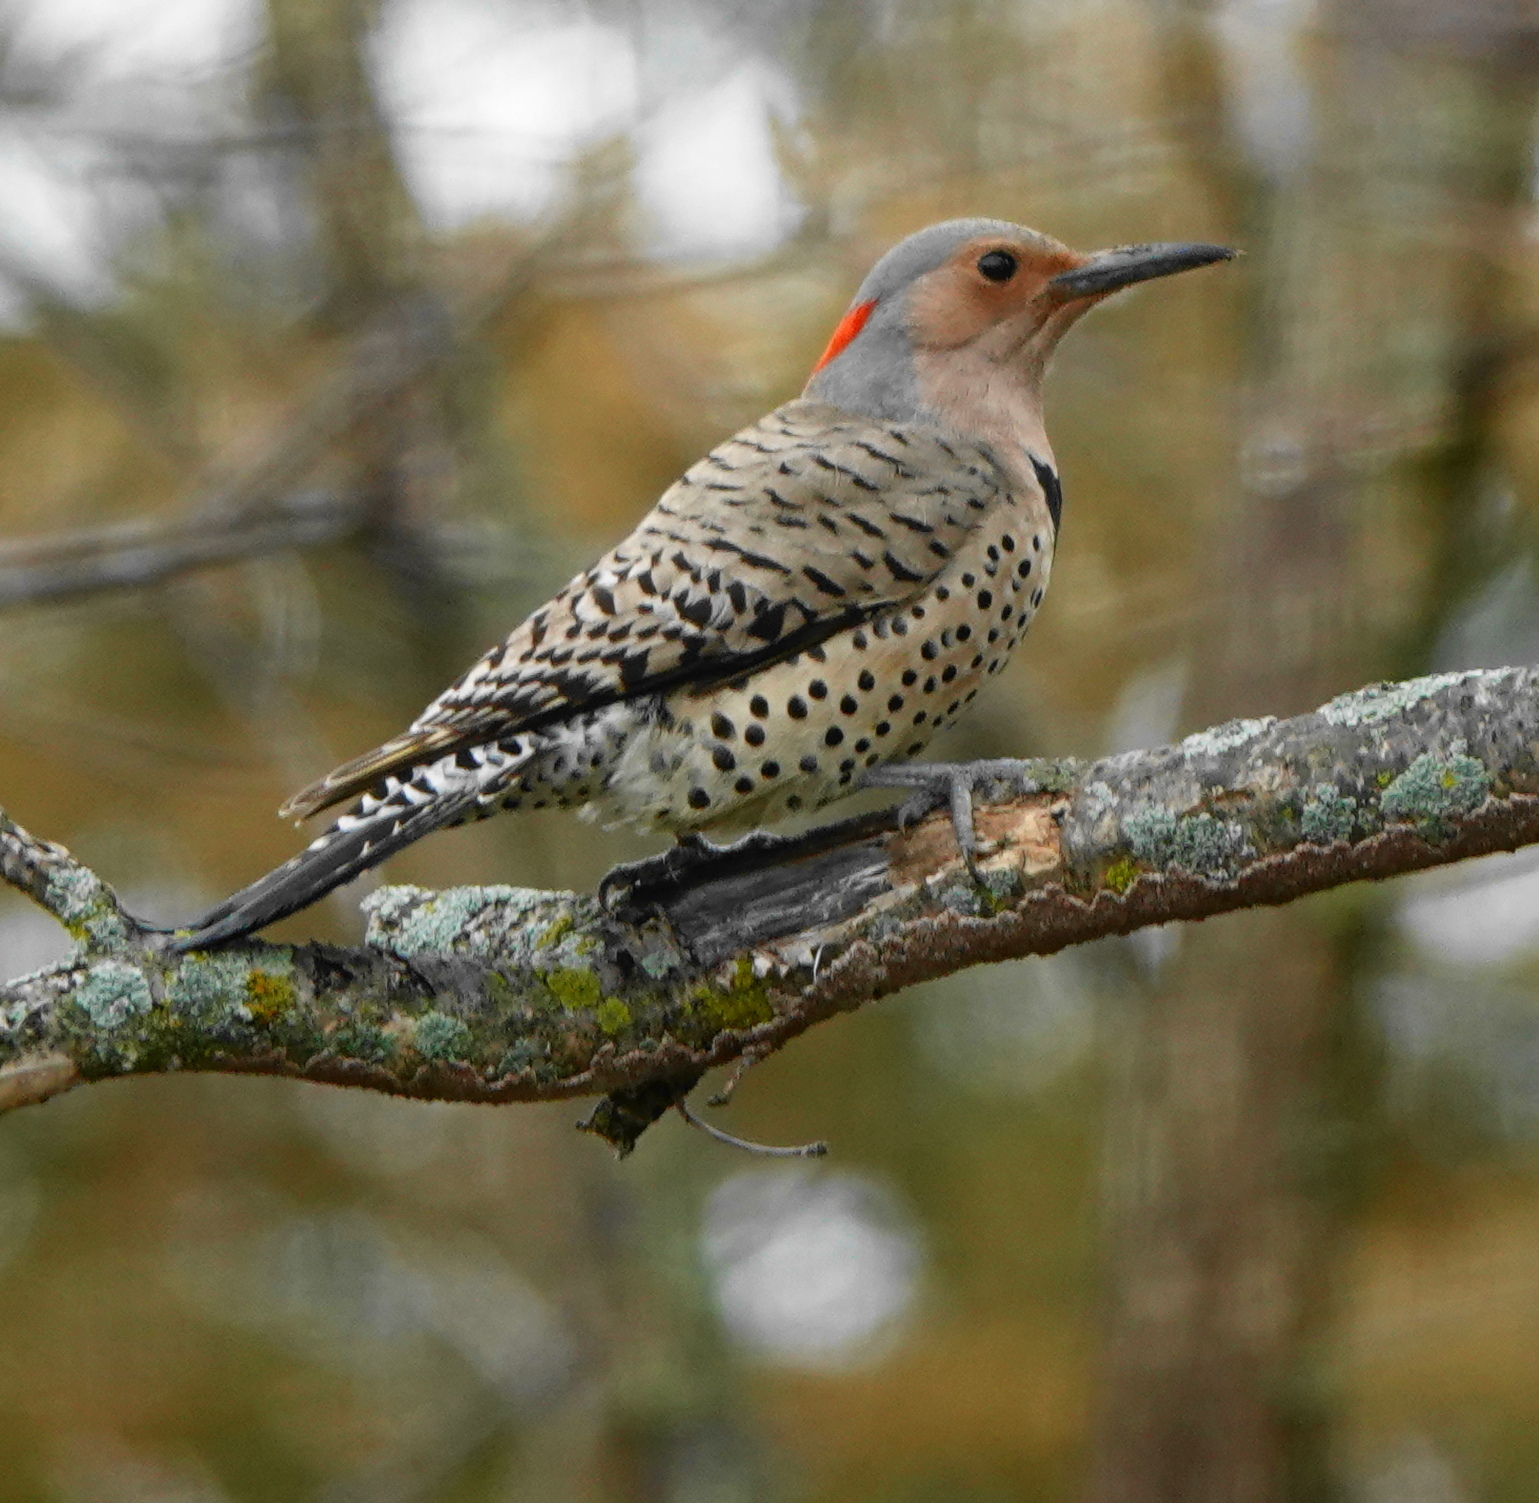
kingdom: Animalia
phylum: Chordata
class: Aves
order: Piciformes
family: Picidae
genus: Colaptes
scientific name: Colaptes auratus
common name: Northern flicker
